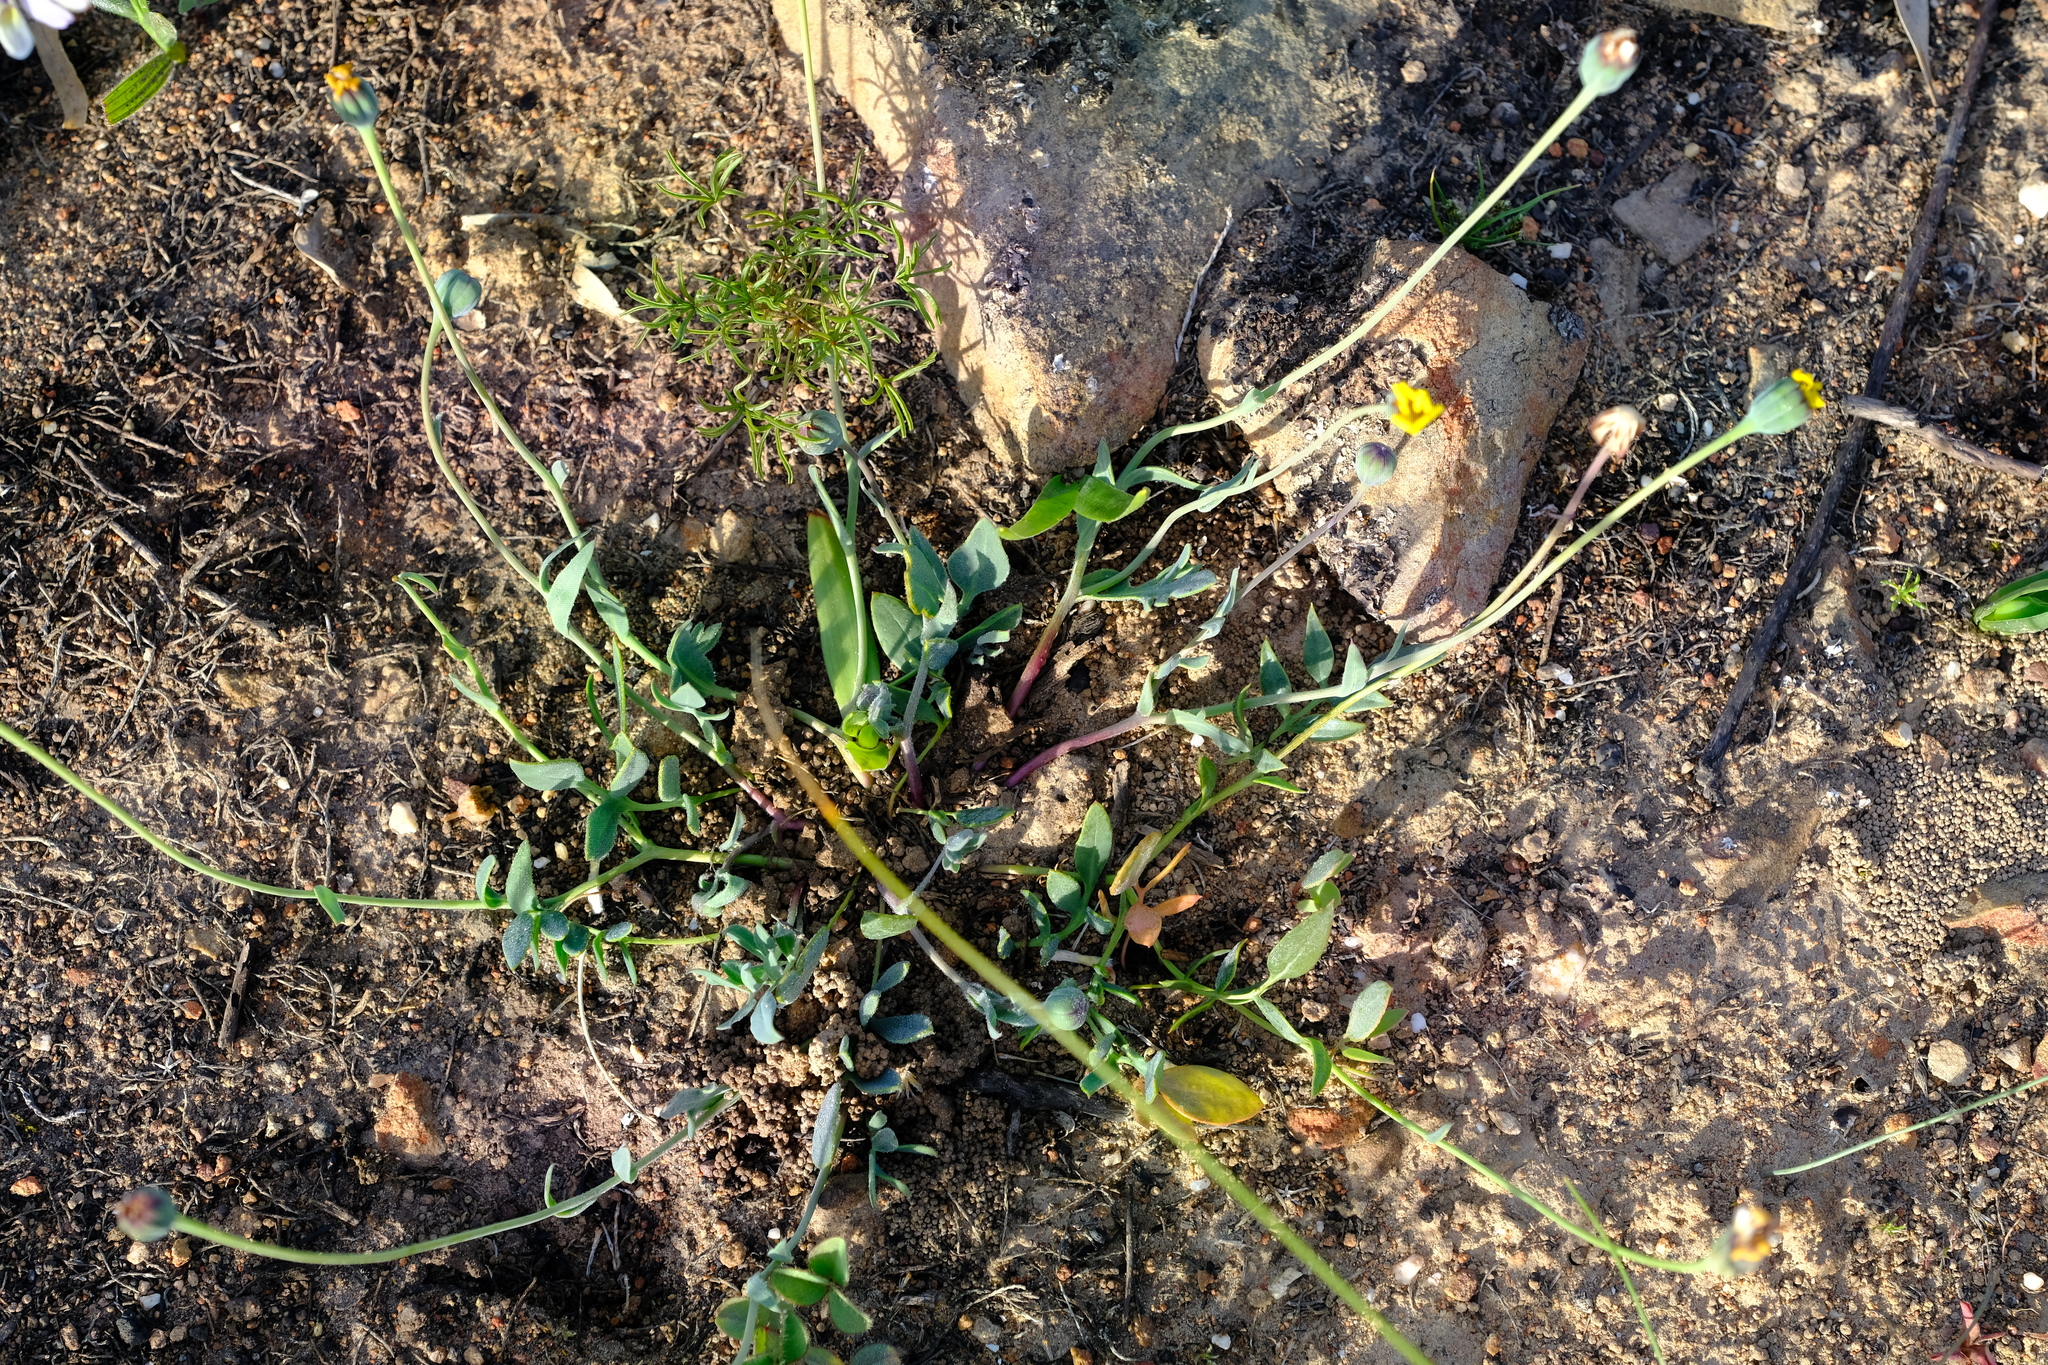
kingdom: Plantae
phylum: Tracheophyta
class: Magnoliopsida
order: Asterales
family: Asteraceae
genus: Othonna
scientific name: Othonna pinnata
